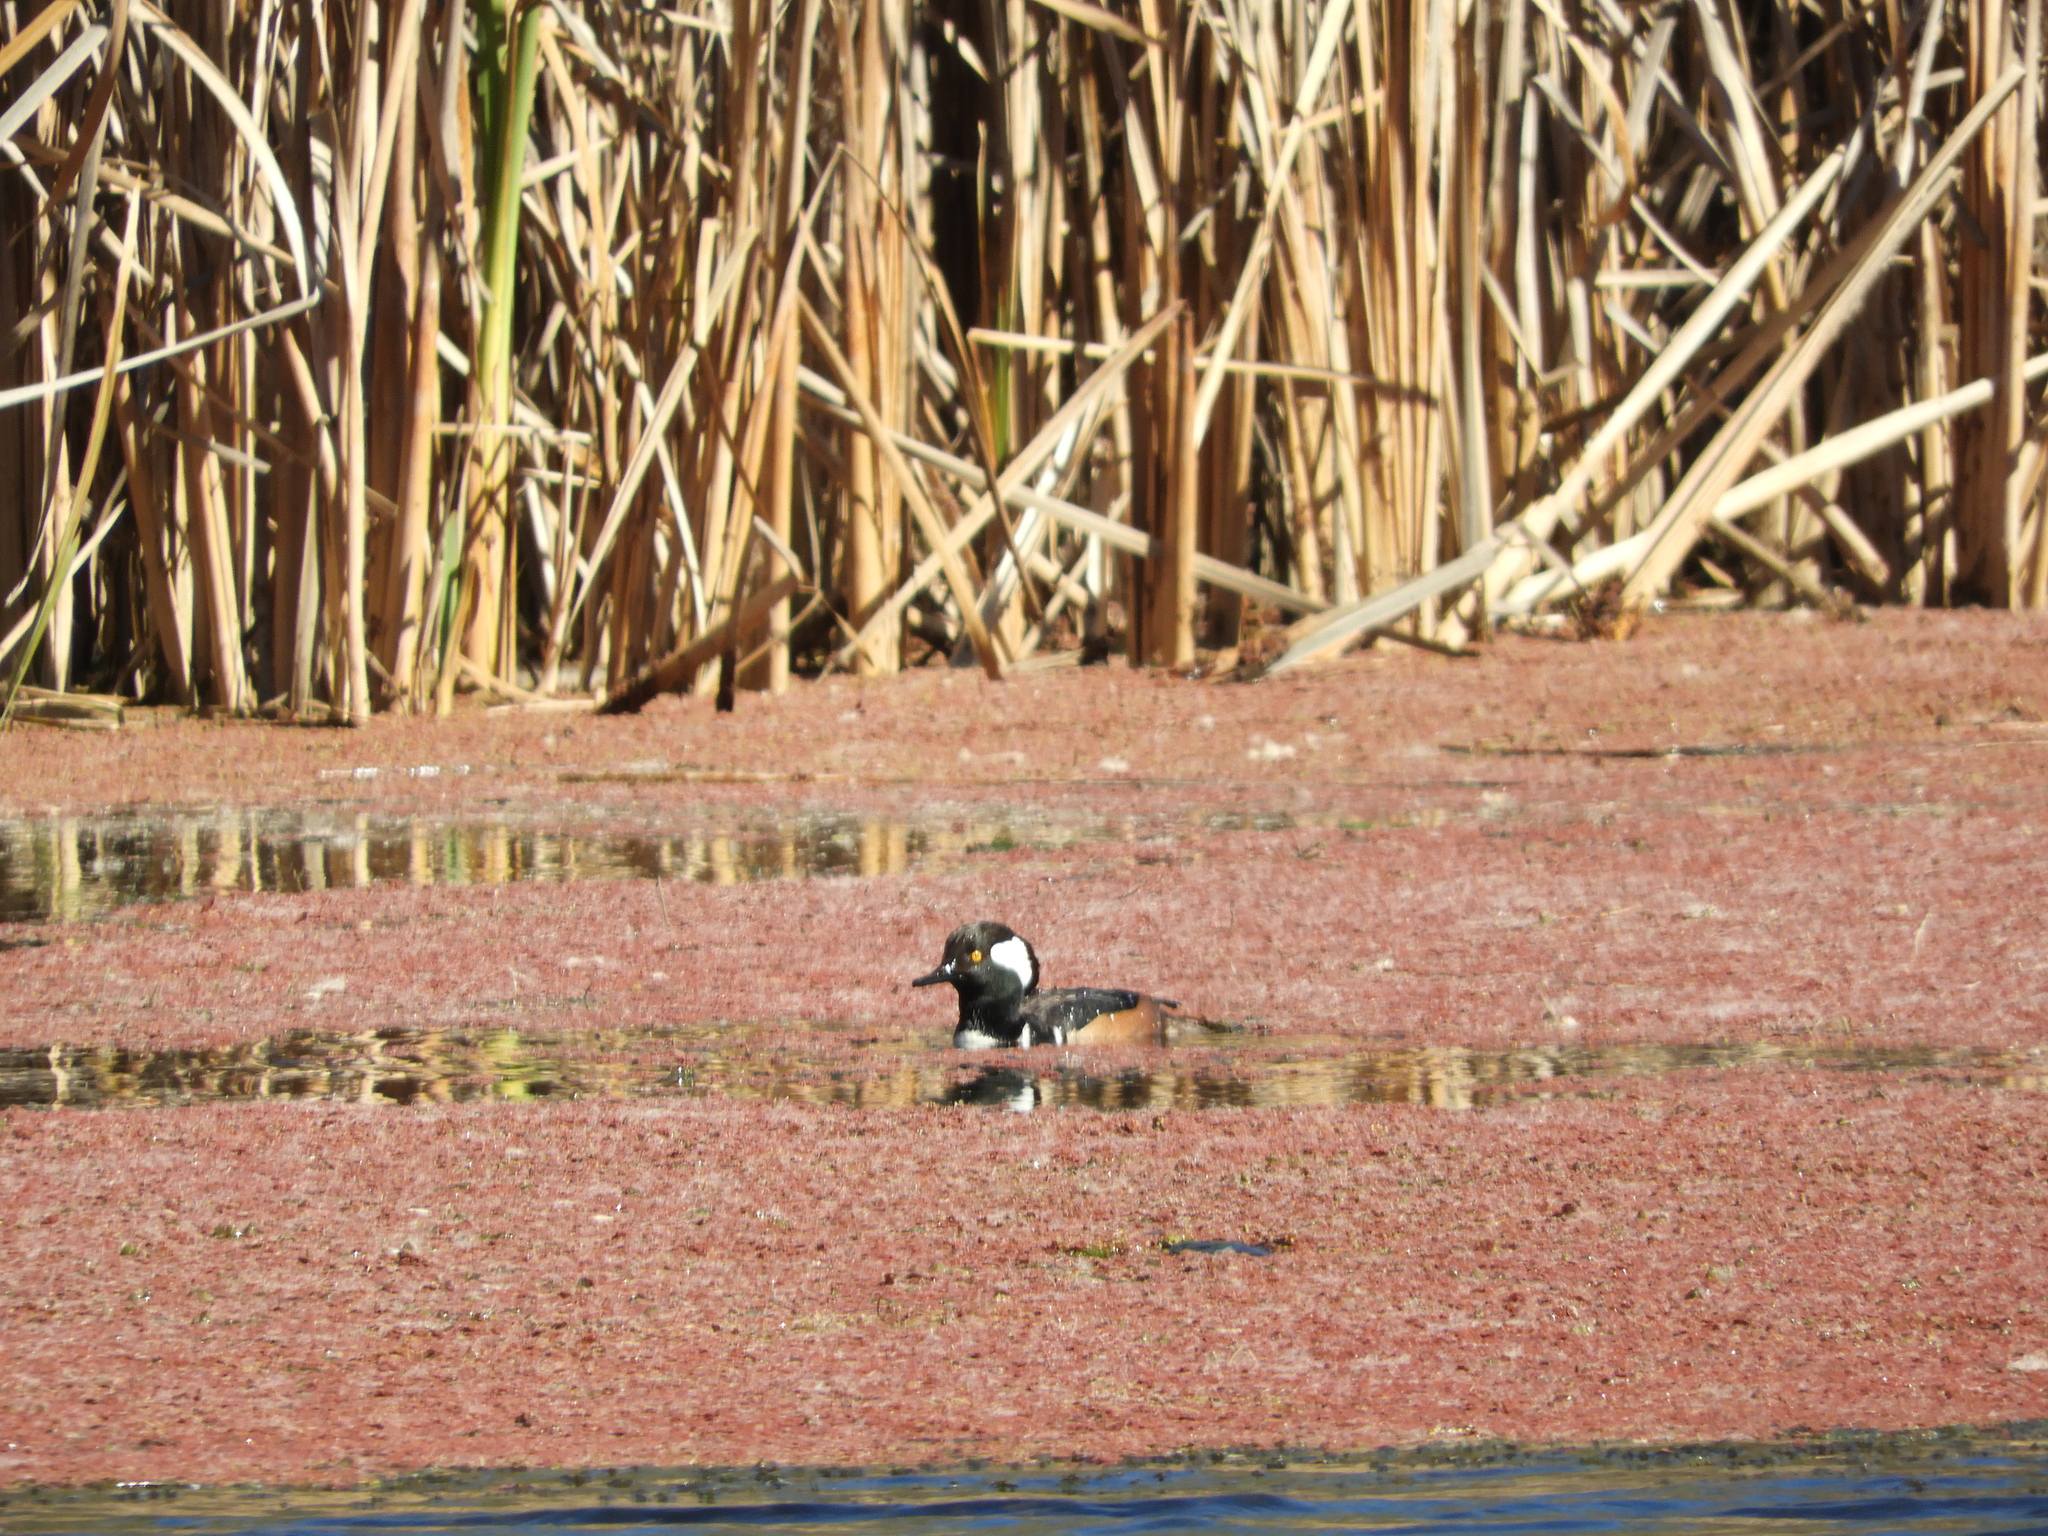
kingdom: Animalia
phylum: Chordata
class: Aves
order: Anseriformes
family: Anatidae
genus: Lophodytes
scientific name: Lophodytes cucullatus
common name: Hooded merganser
